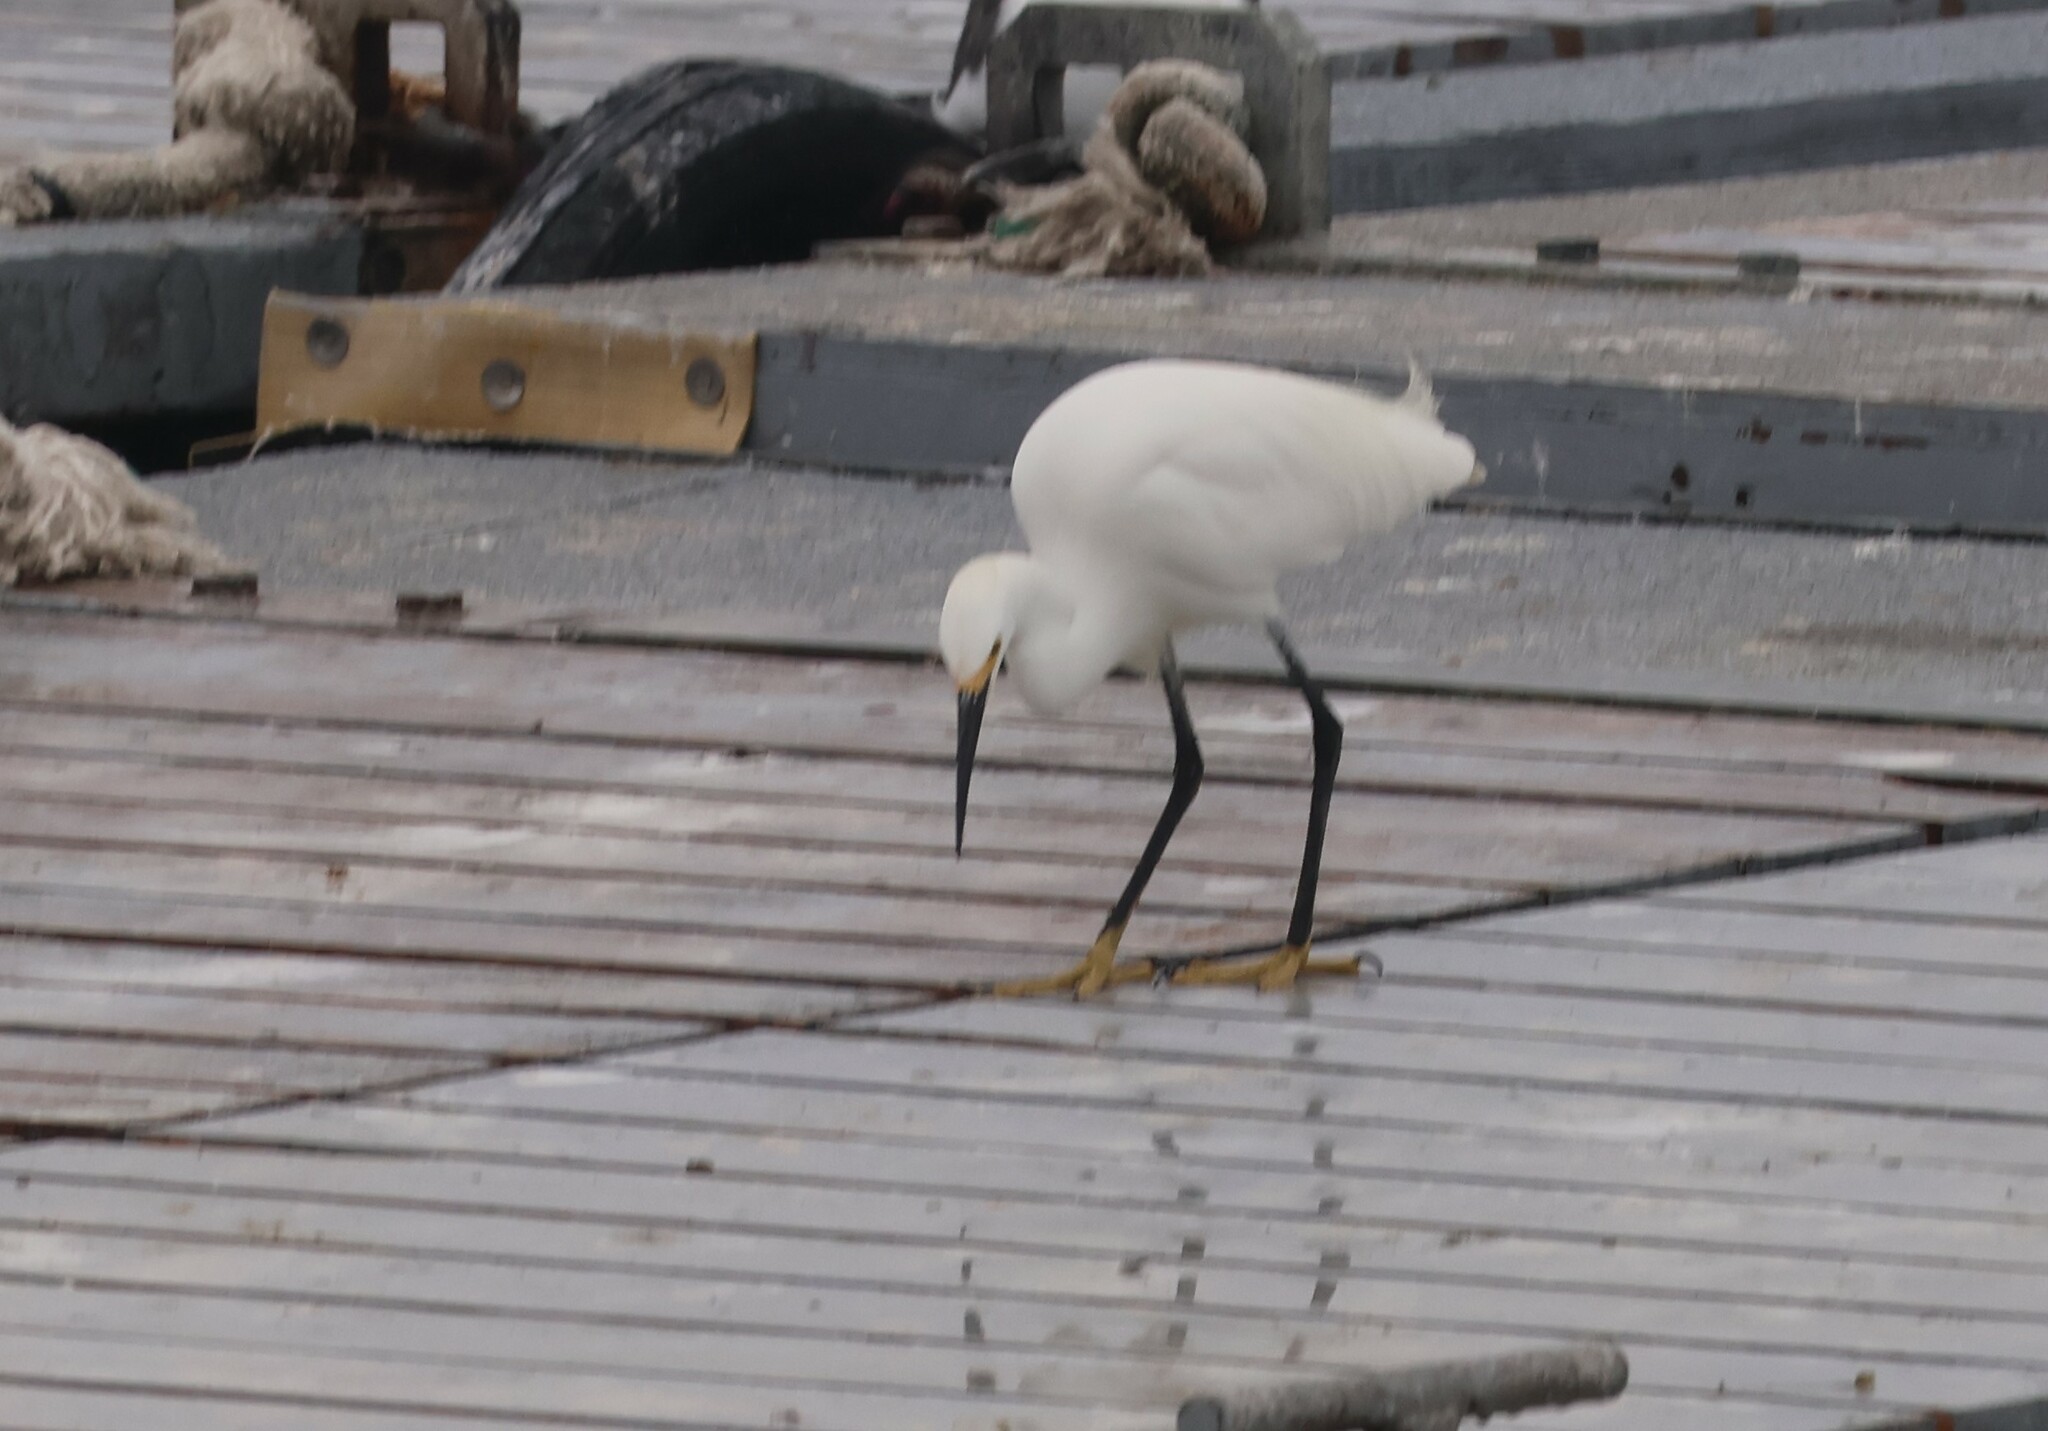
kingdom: Animalia
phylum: Chordata
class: Aves
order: Pelecaniformes
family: Ardeidae
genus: Egretta
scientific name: Egretta thula
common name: Snowy egret
